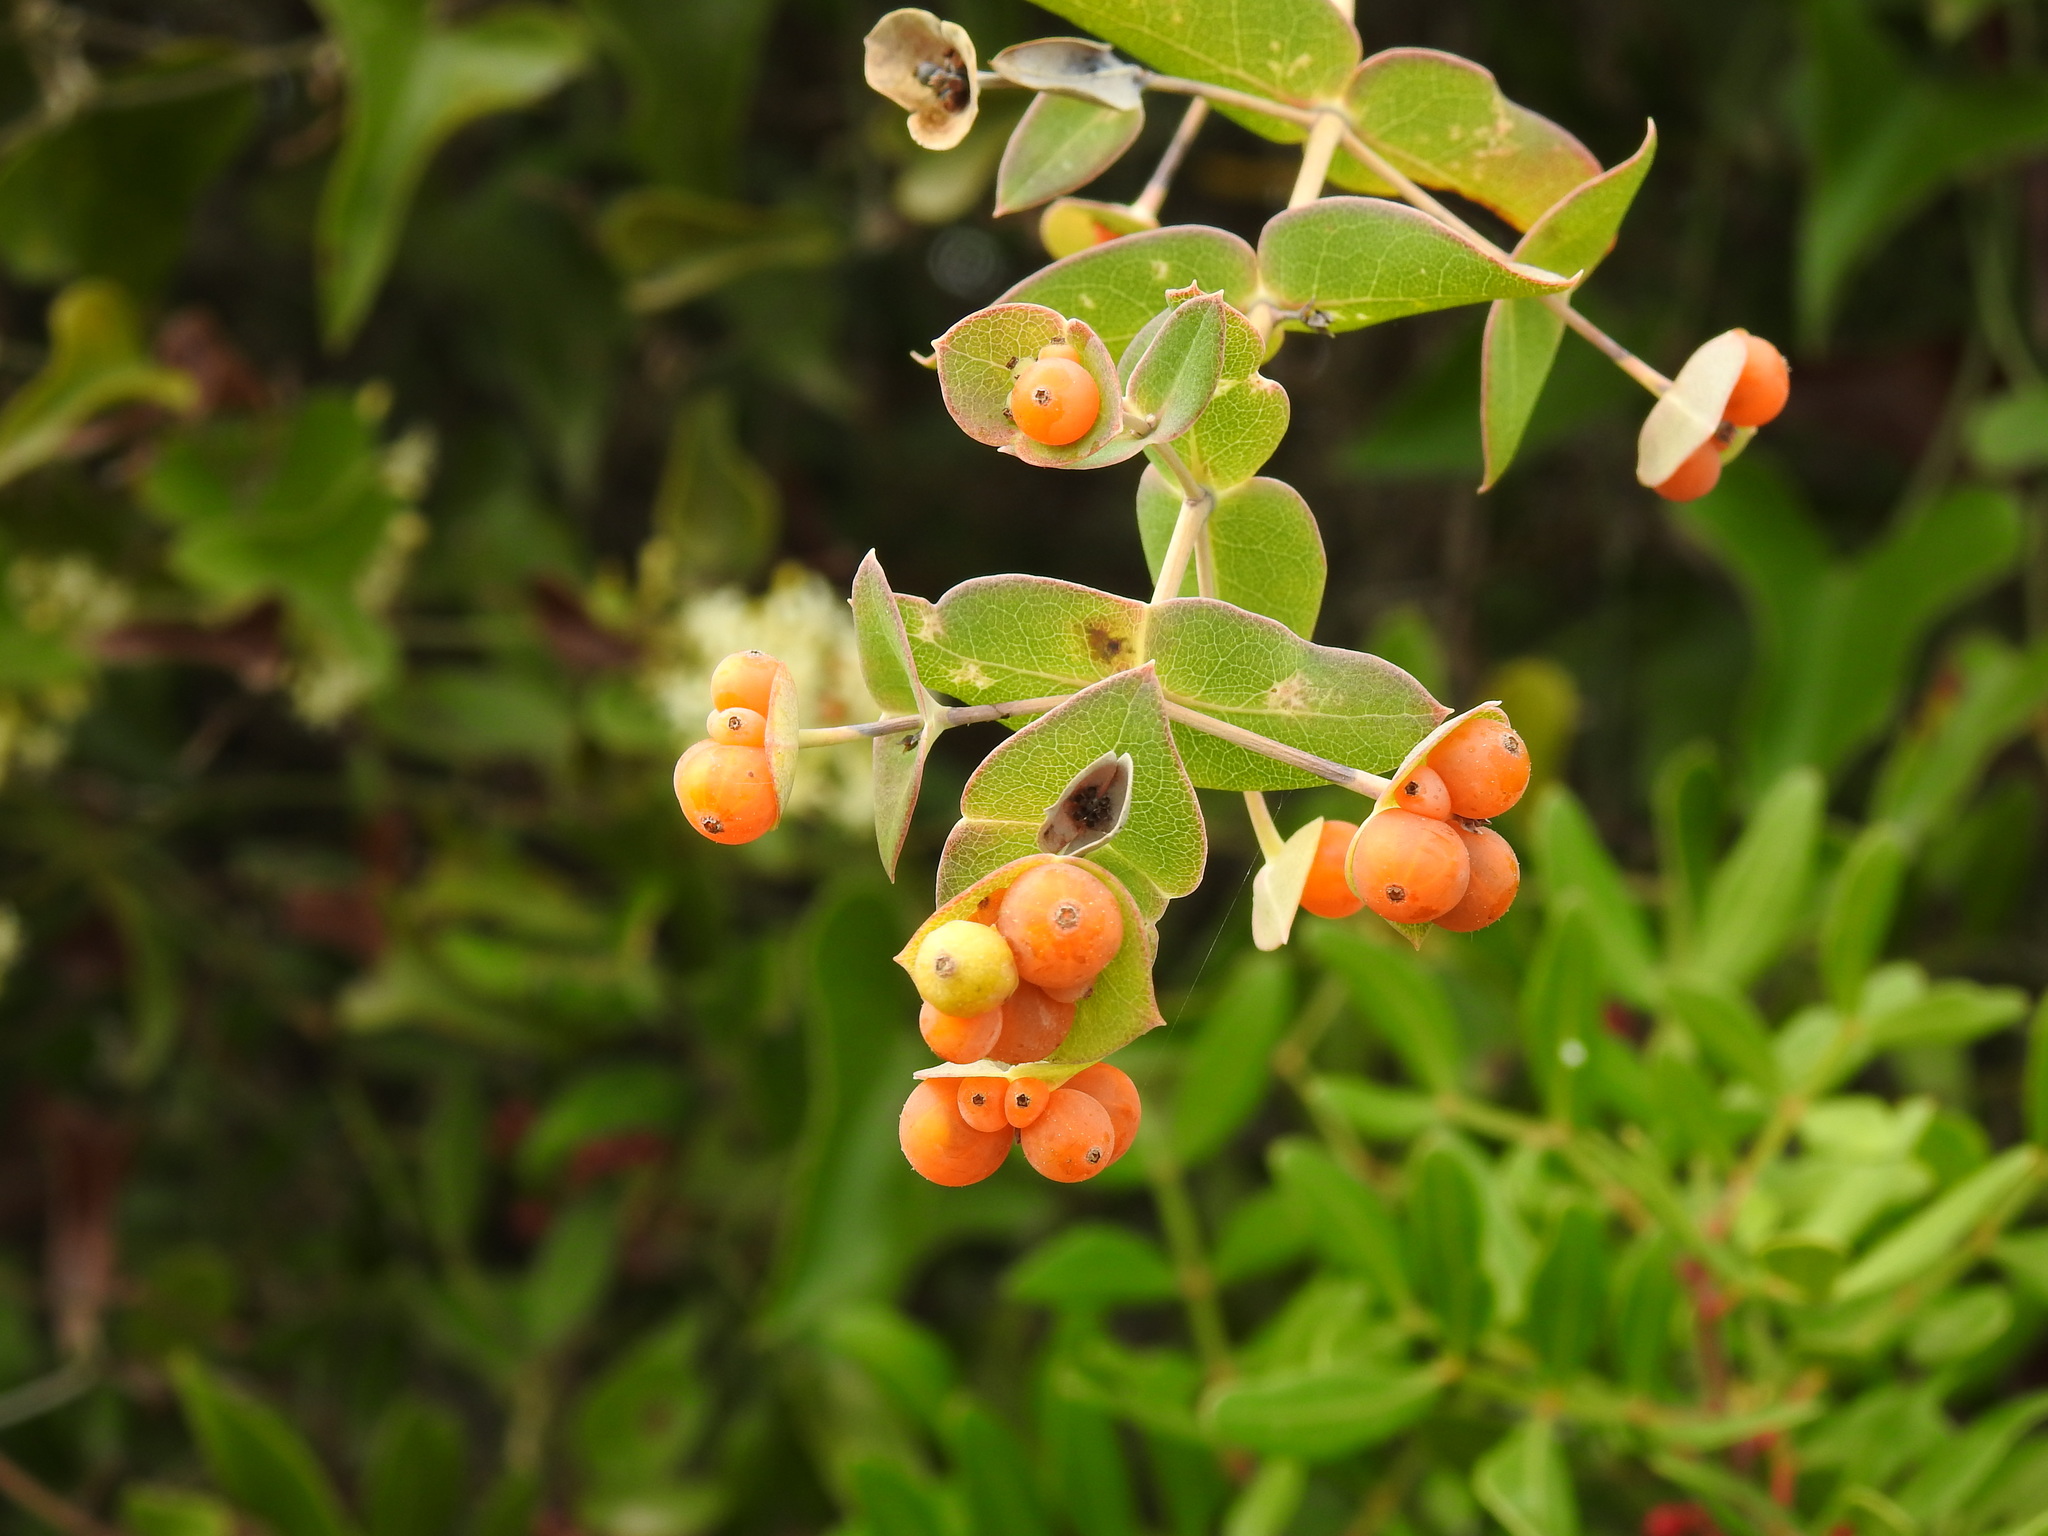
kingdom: Plantae
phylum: Tracheophyta
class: Magnoliopsida
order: Dipsacales
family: Caprifoliaceae
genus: Lonicera
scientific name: Lonicera implexa
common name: Minorca honeysuckle
